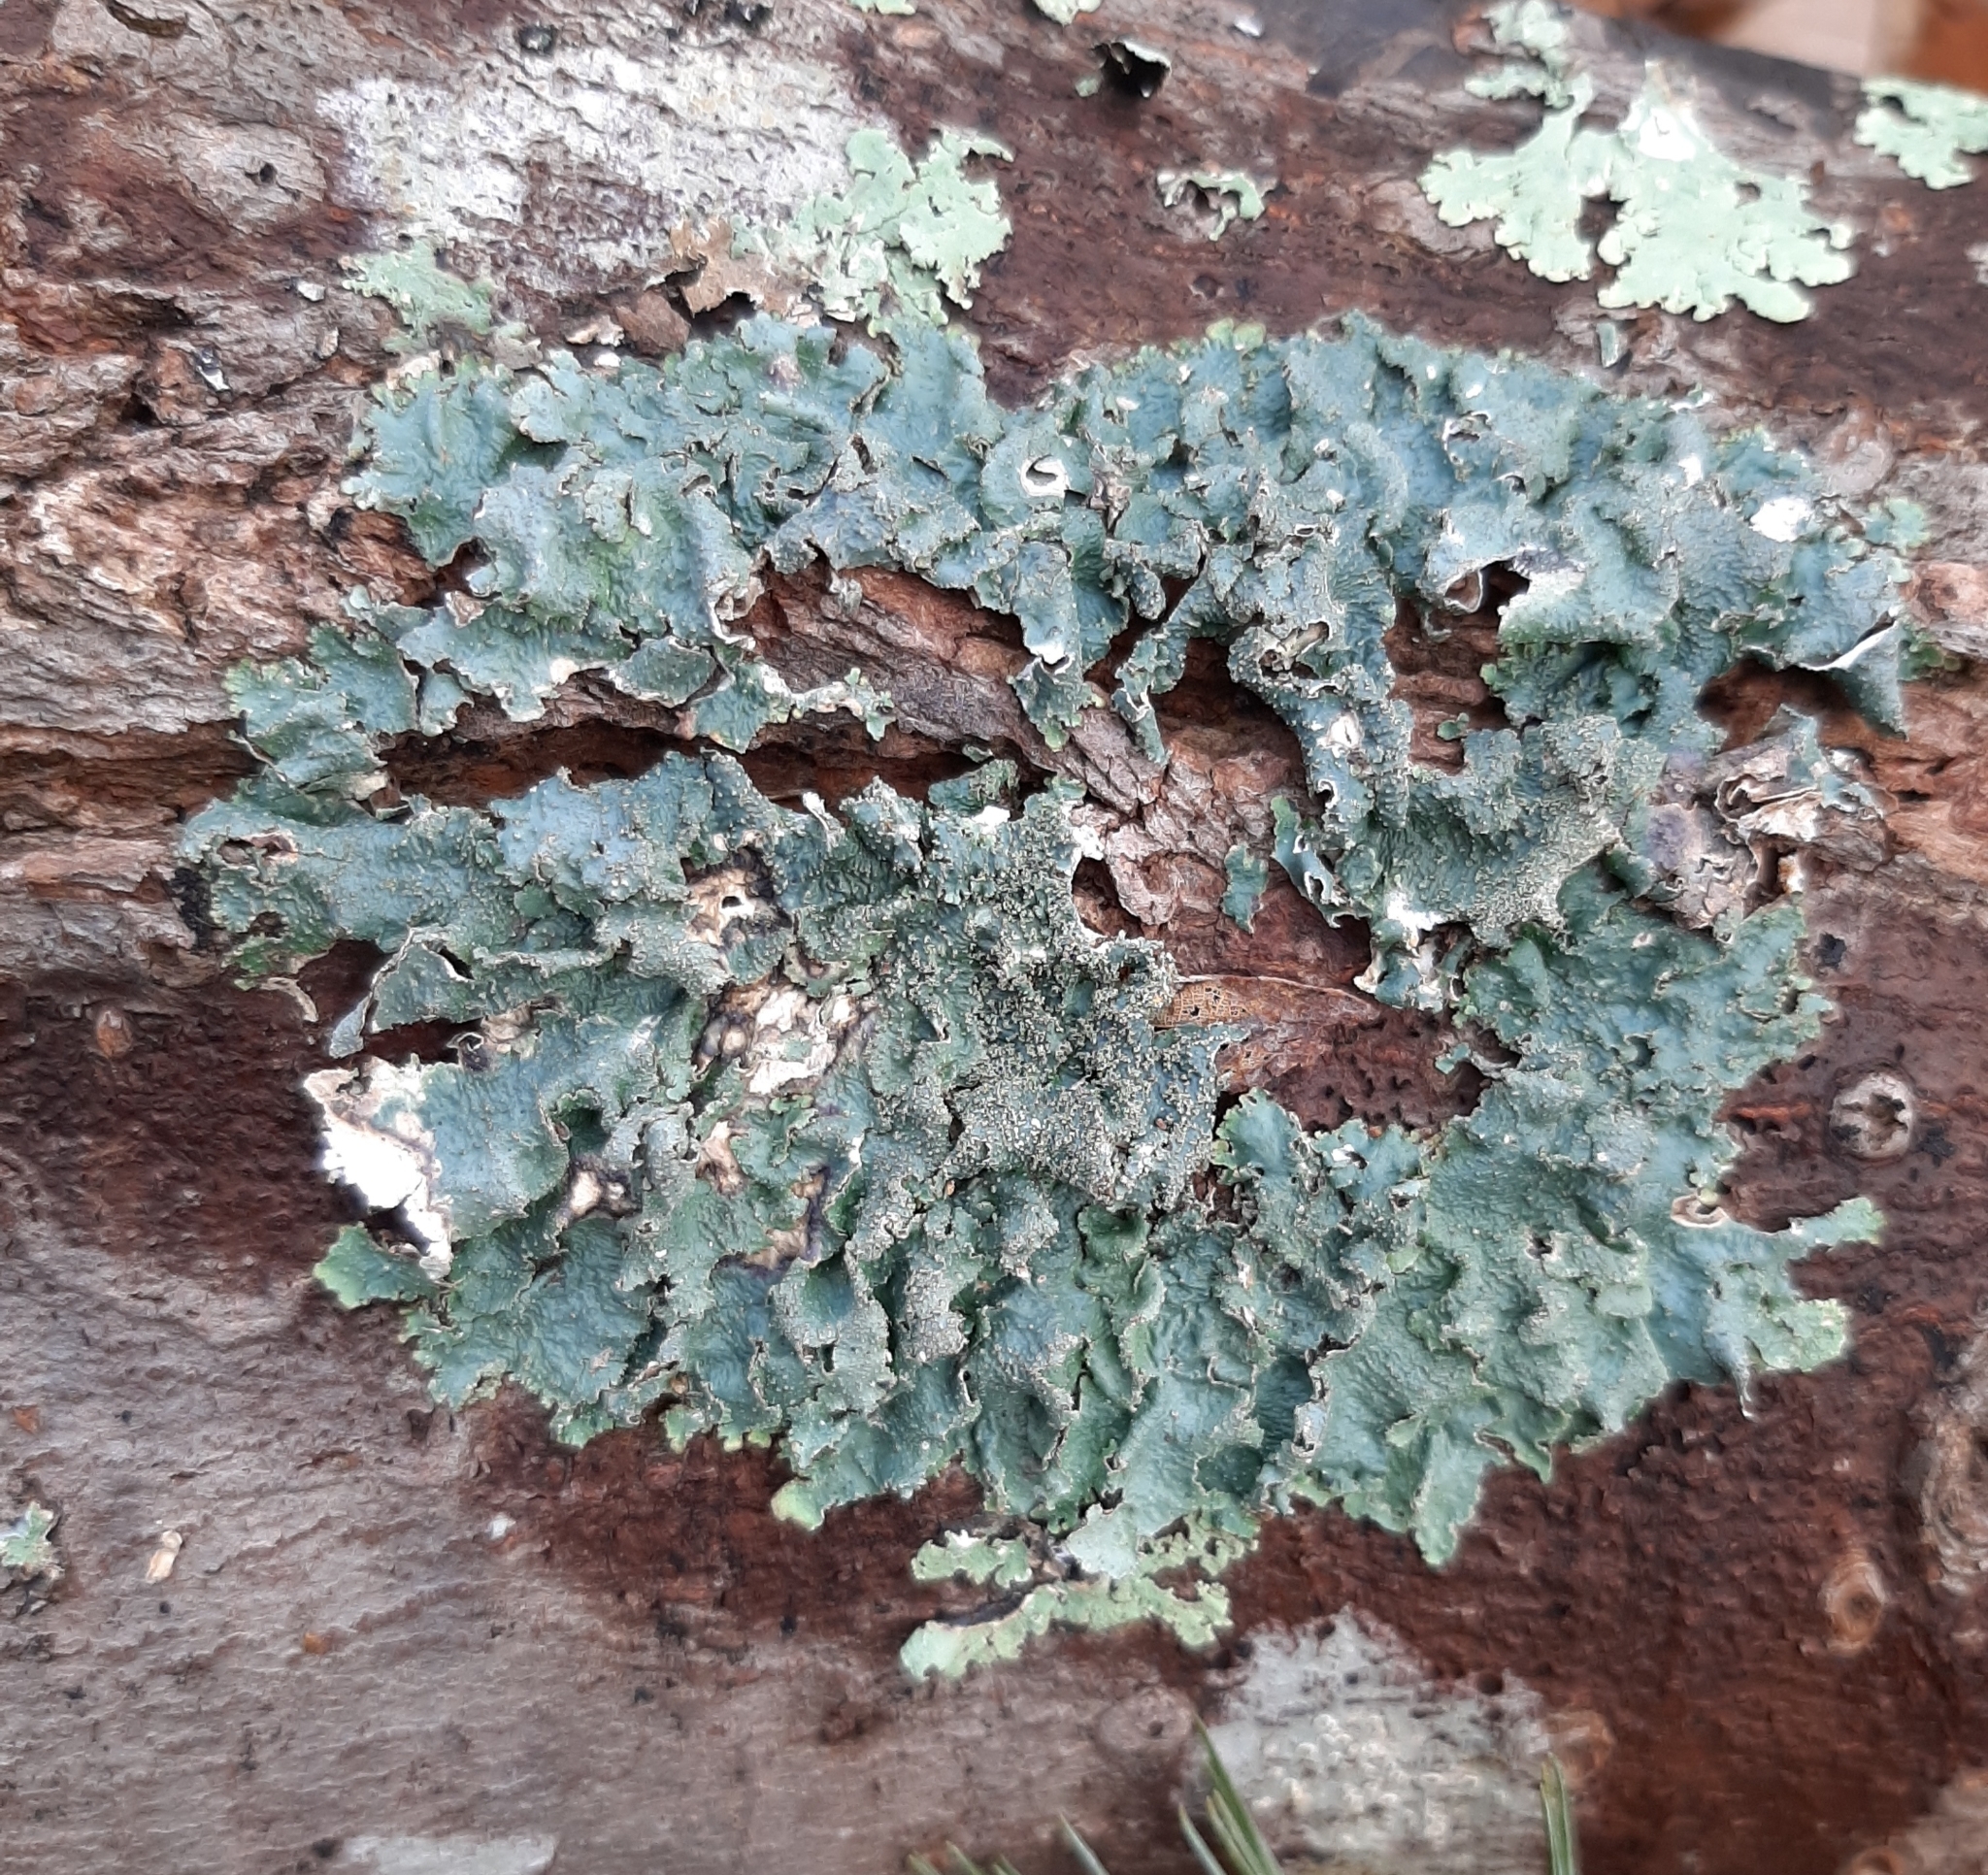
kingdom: Fungi
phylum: Ascomycota
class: Lecanoromycetes
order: Lecanorales
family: Parmeliaceae
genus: Punctelia
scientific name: Punctelia rudecta
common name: Rough speckled shield lichen
